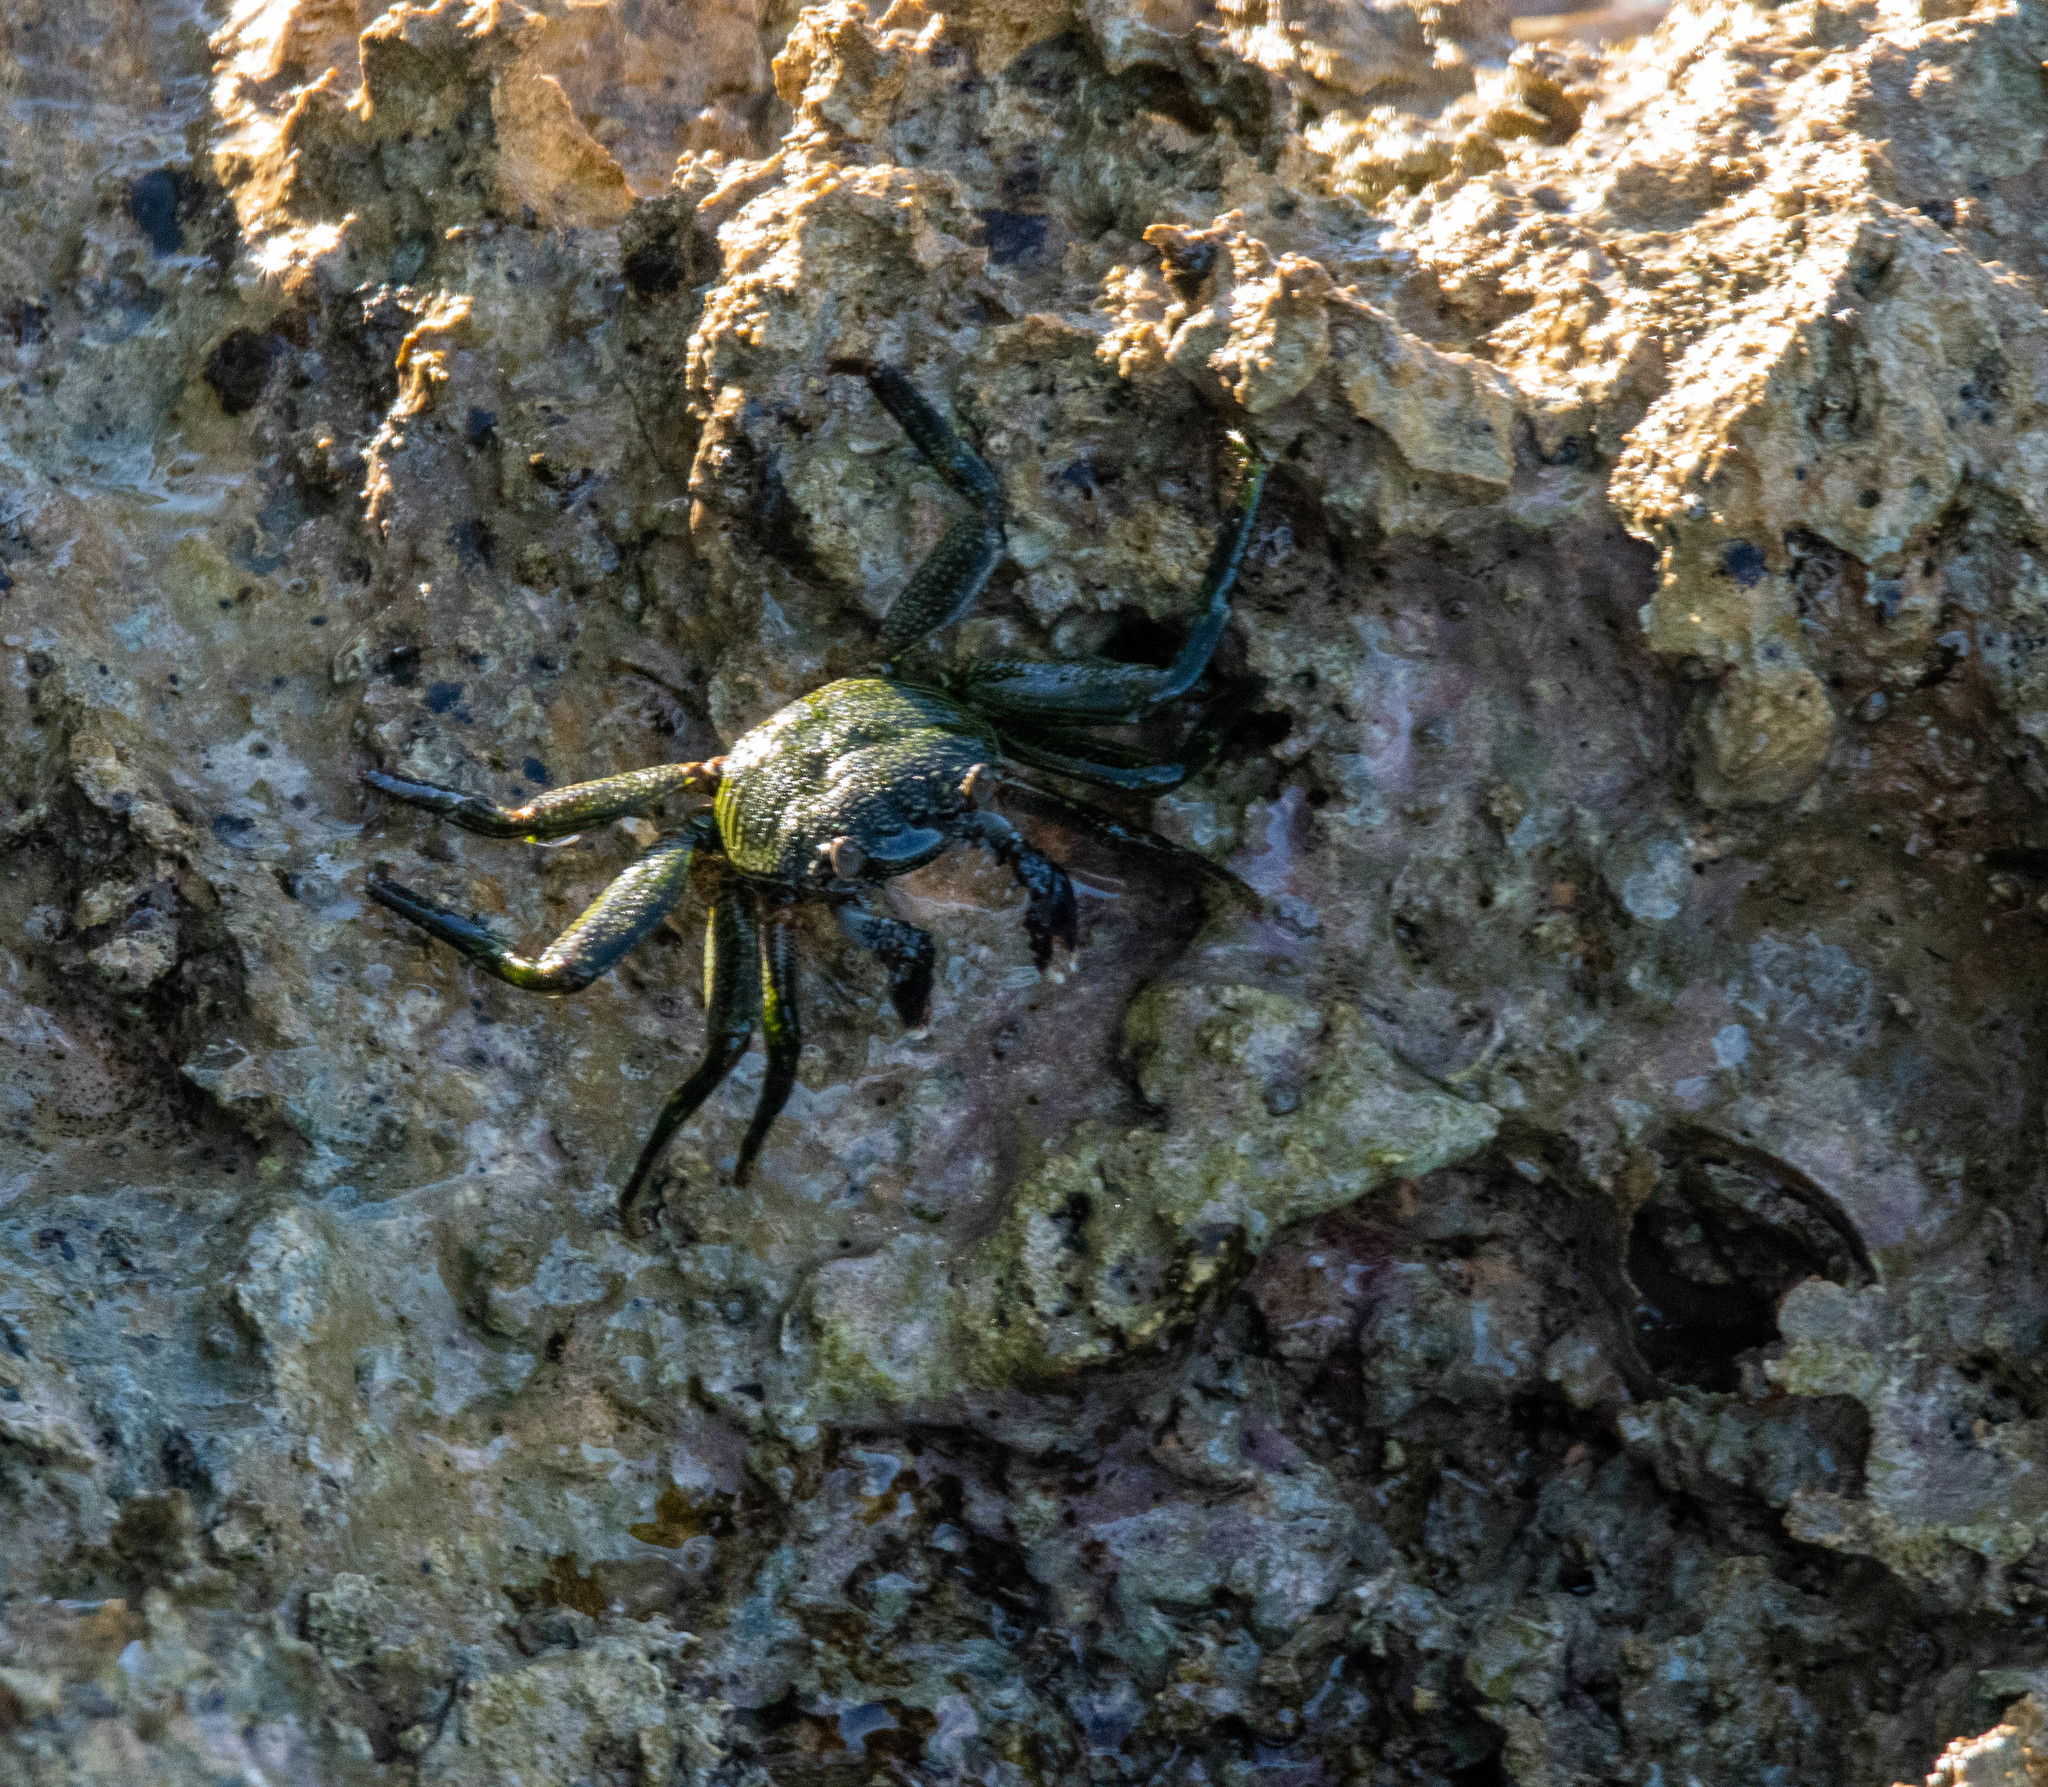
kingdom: Animalia
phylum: Arthropoda
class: Malacostraca
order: Decapoda
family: Grapsidae
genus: Grapsus
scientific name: Grapsus tenuicrustatus
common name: Natal lightfoot crab
